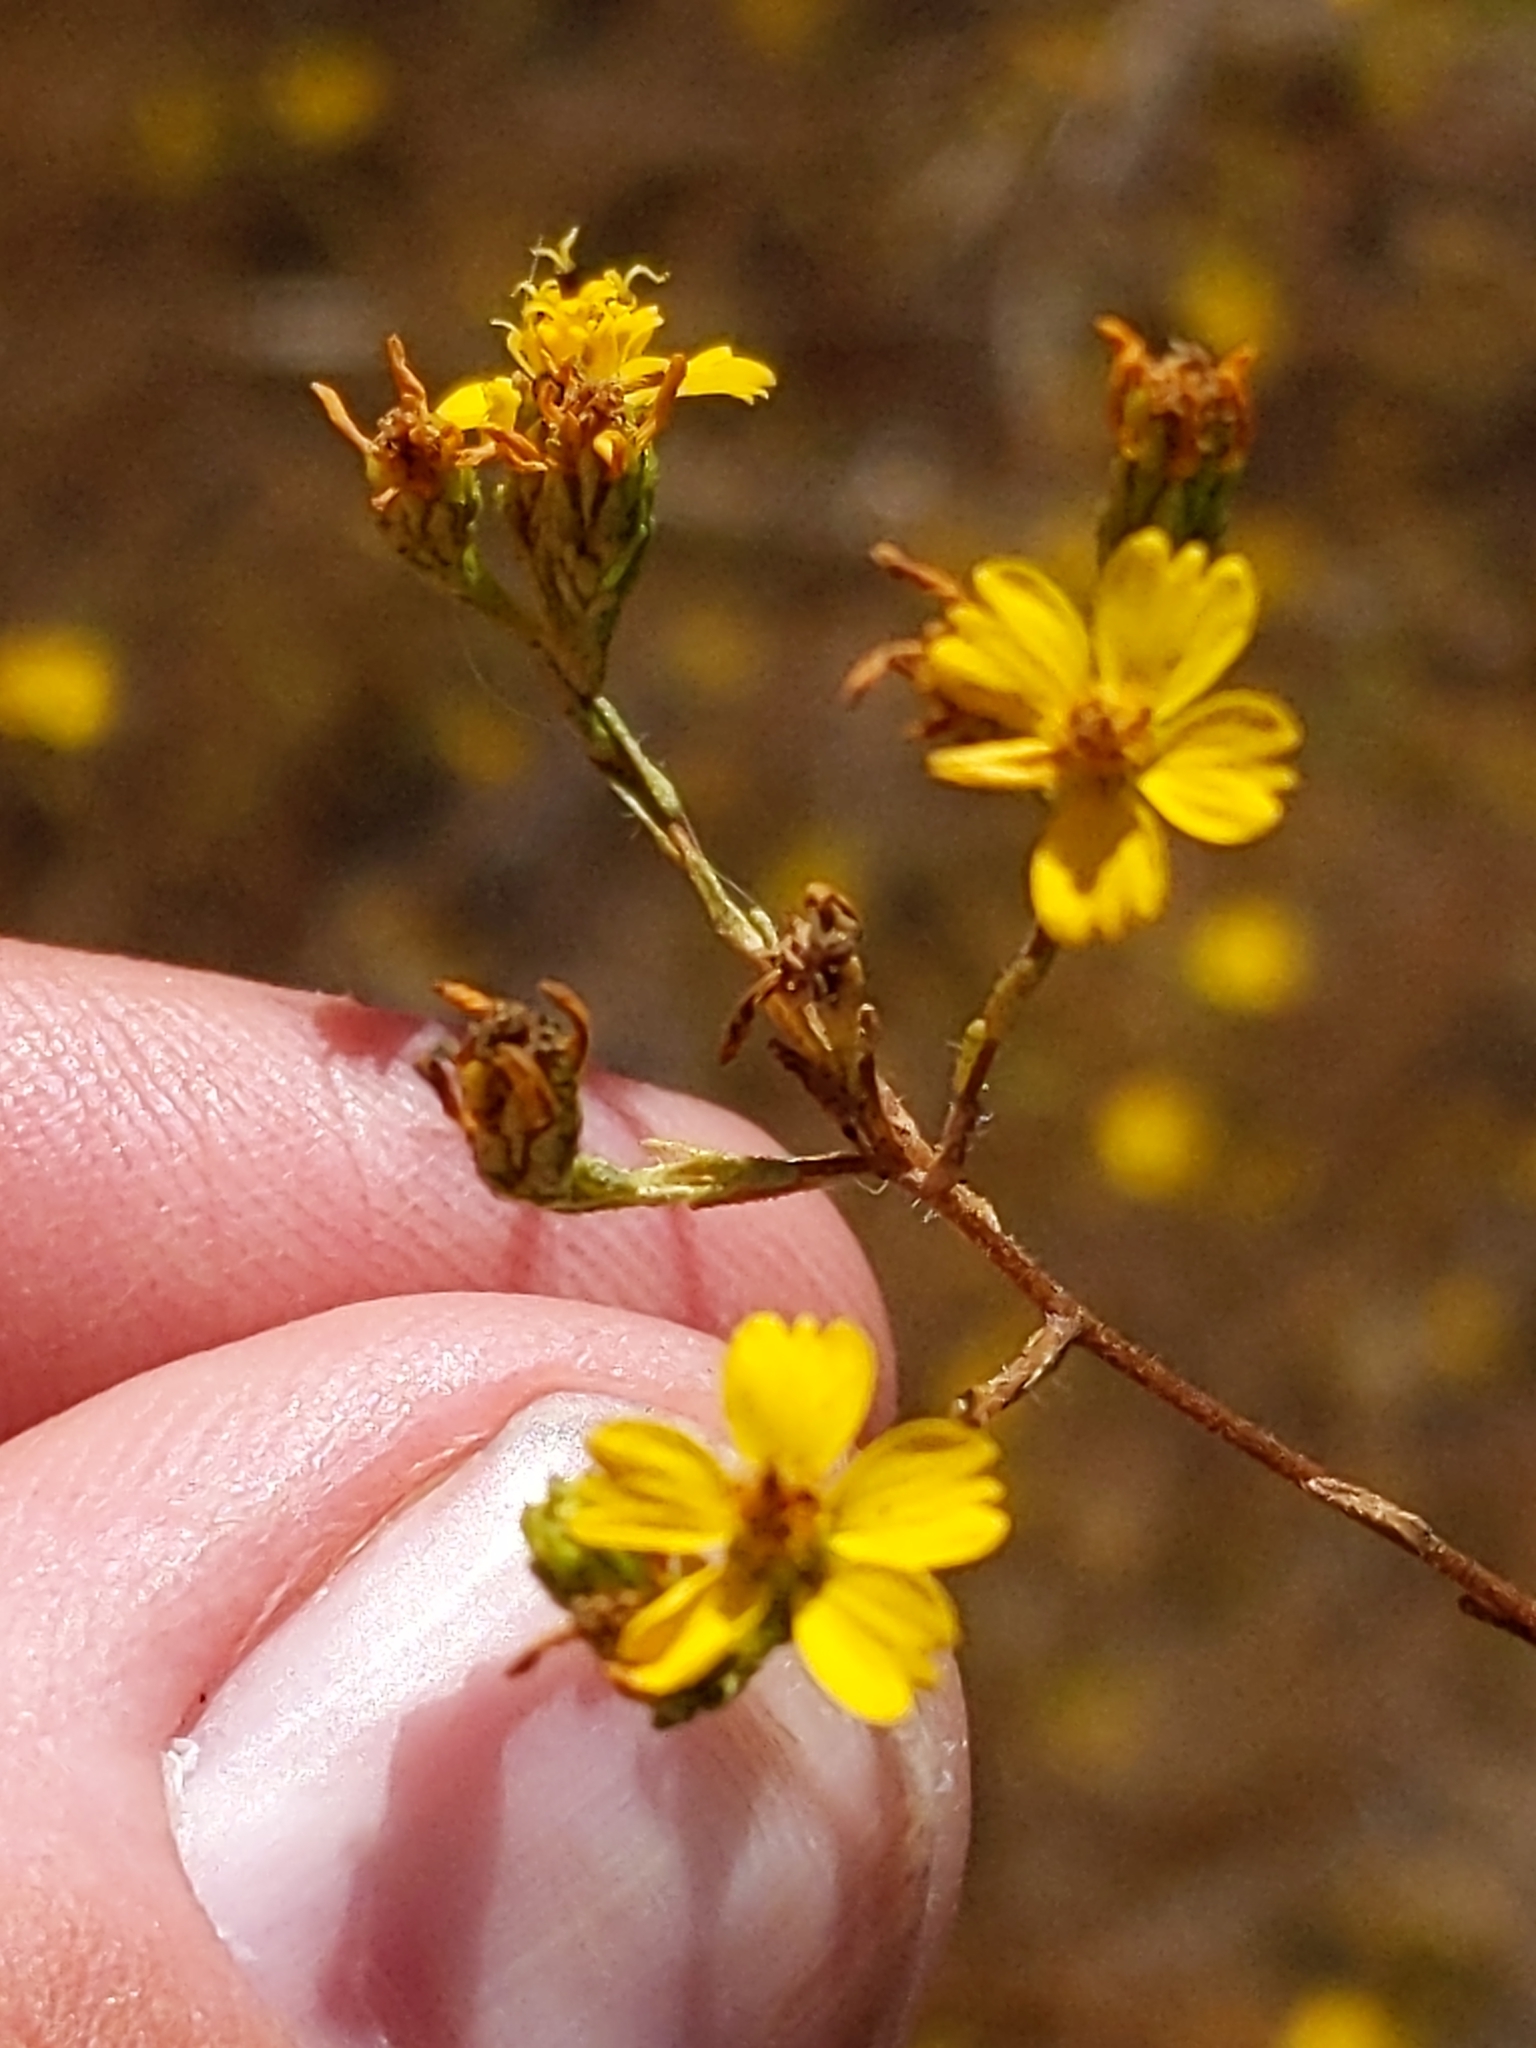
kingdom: Plantae
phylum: Tracheophyta
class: Magnoliopsida
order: Asterales
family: Asteraceae
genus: Deinandra
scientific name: Deinandra fasciculata
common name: Clustered tarweed
